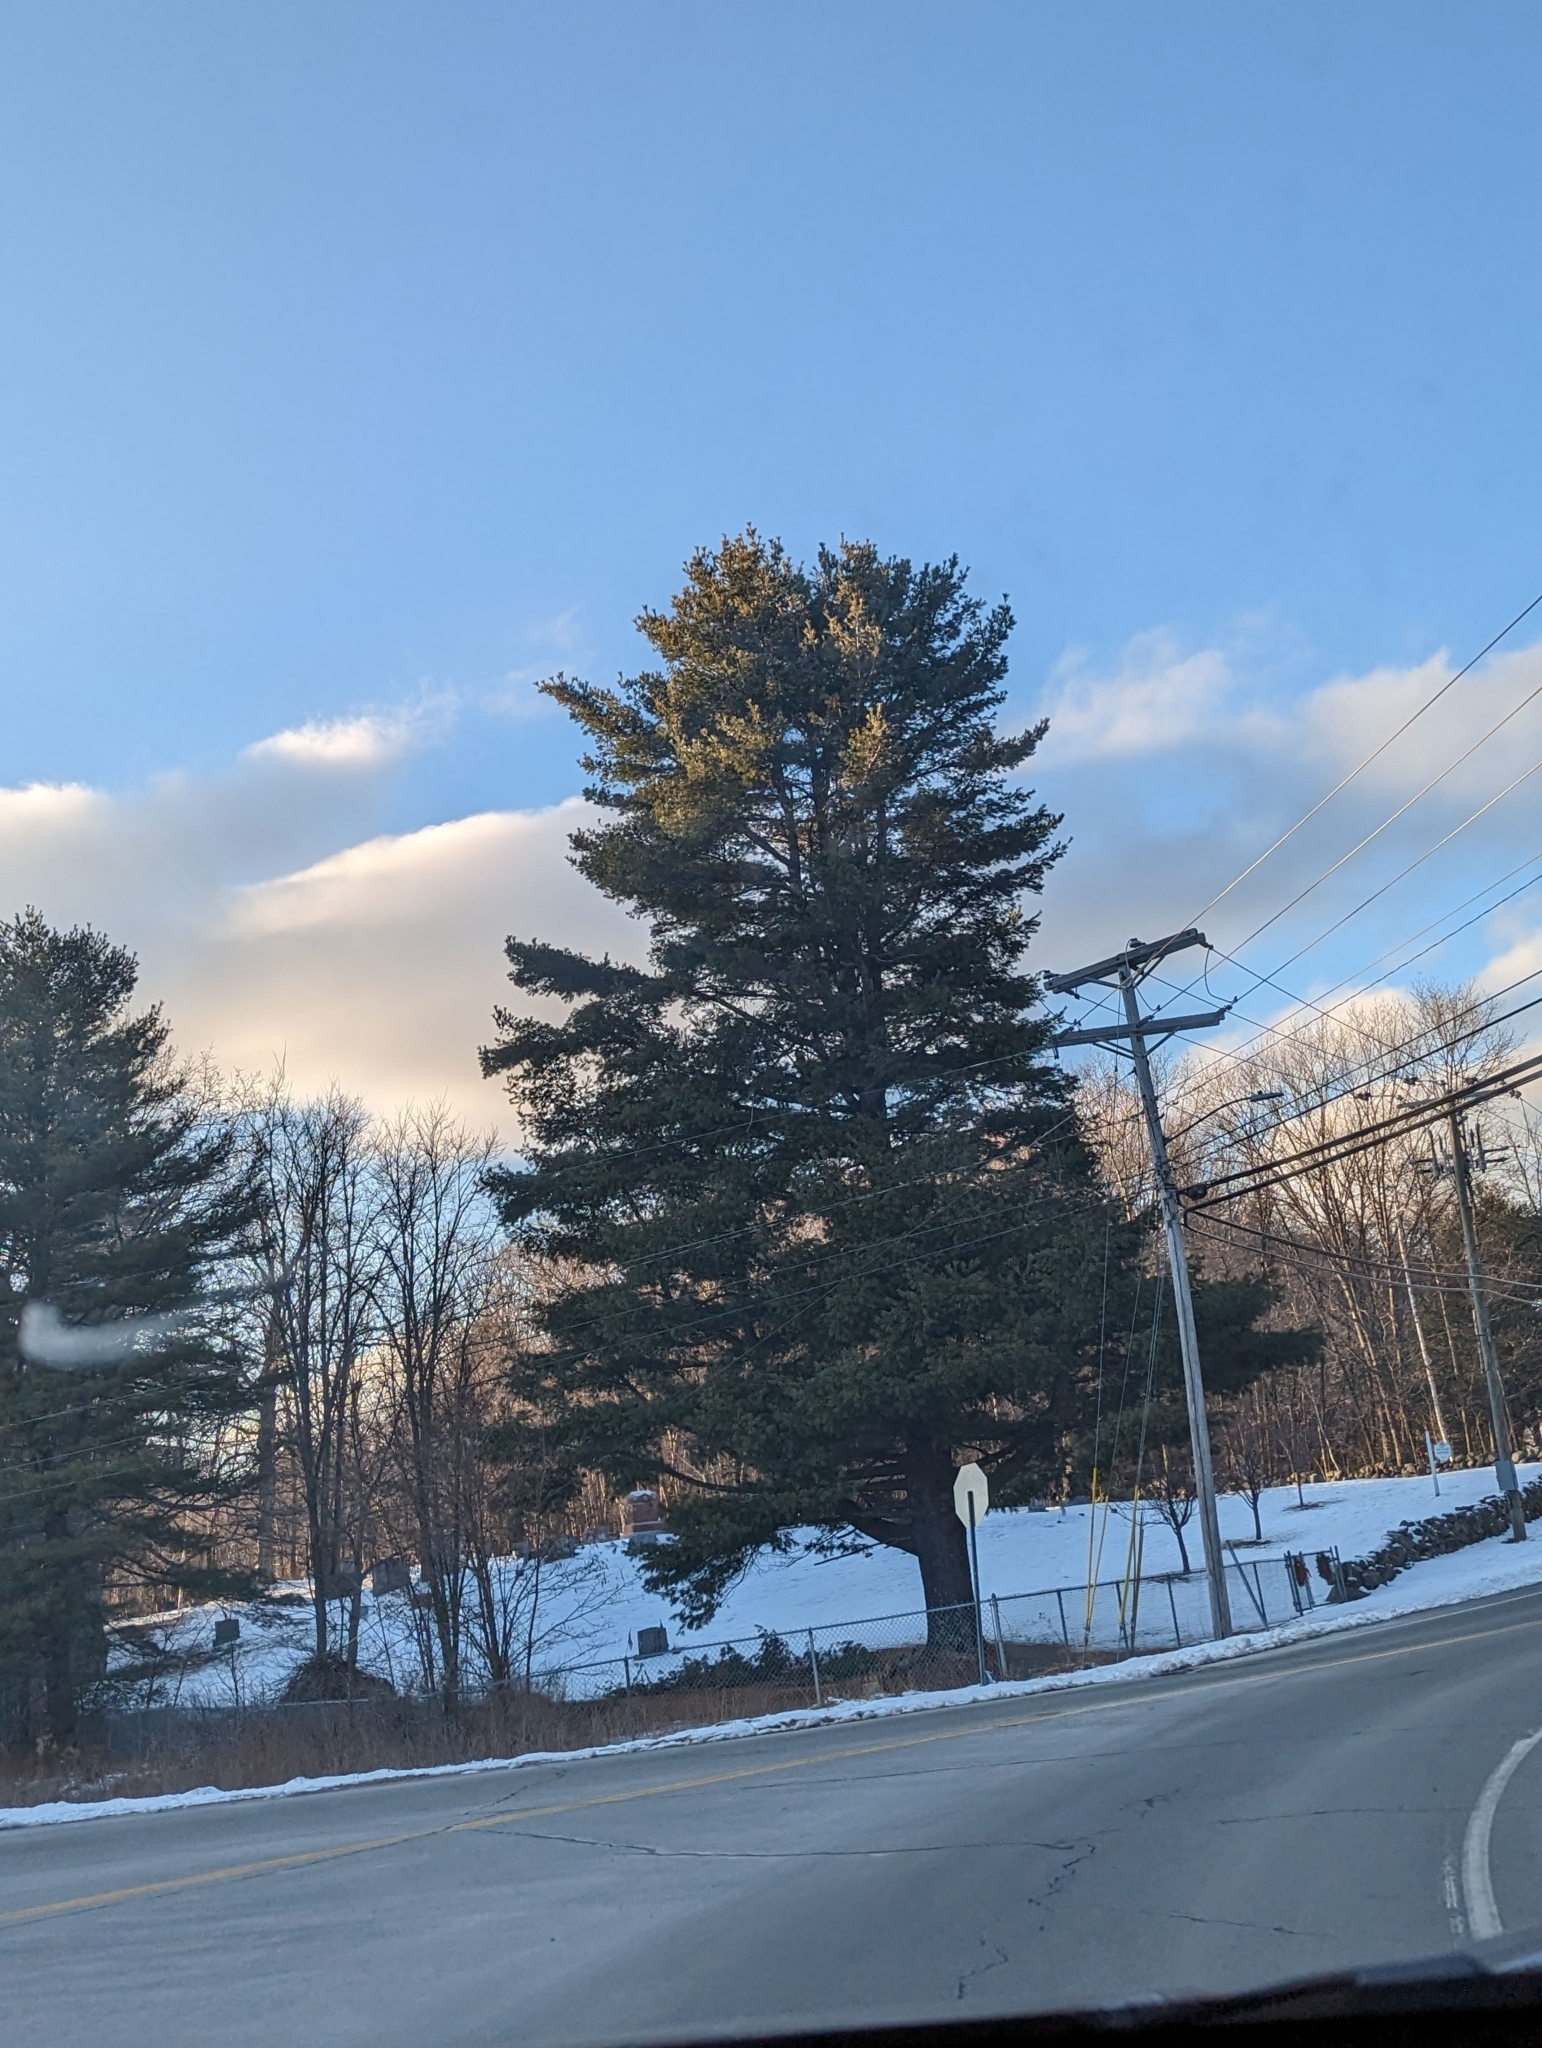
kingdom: Plantae
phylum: Tracheophyta
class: Pinopsida
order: Pinales
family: Pinaceae
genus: Pinus
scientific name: Pinus strobus
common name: Weymouth pine
